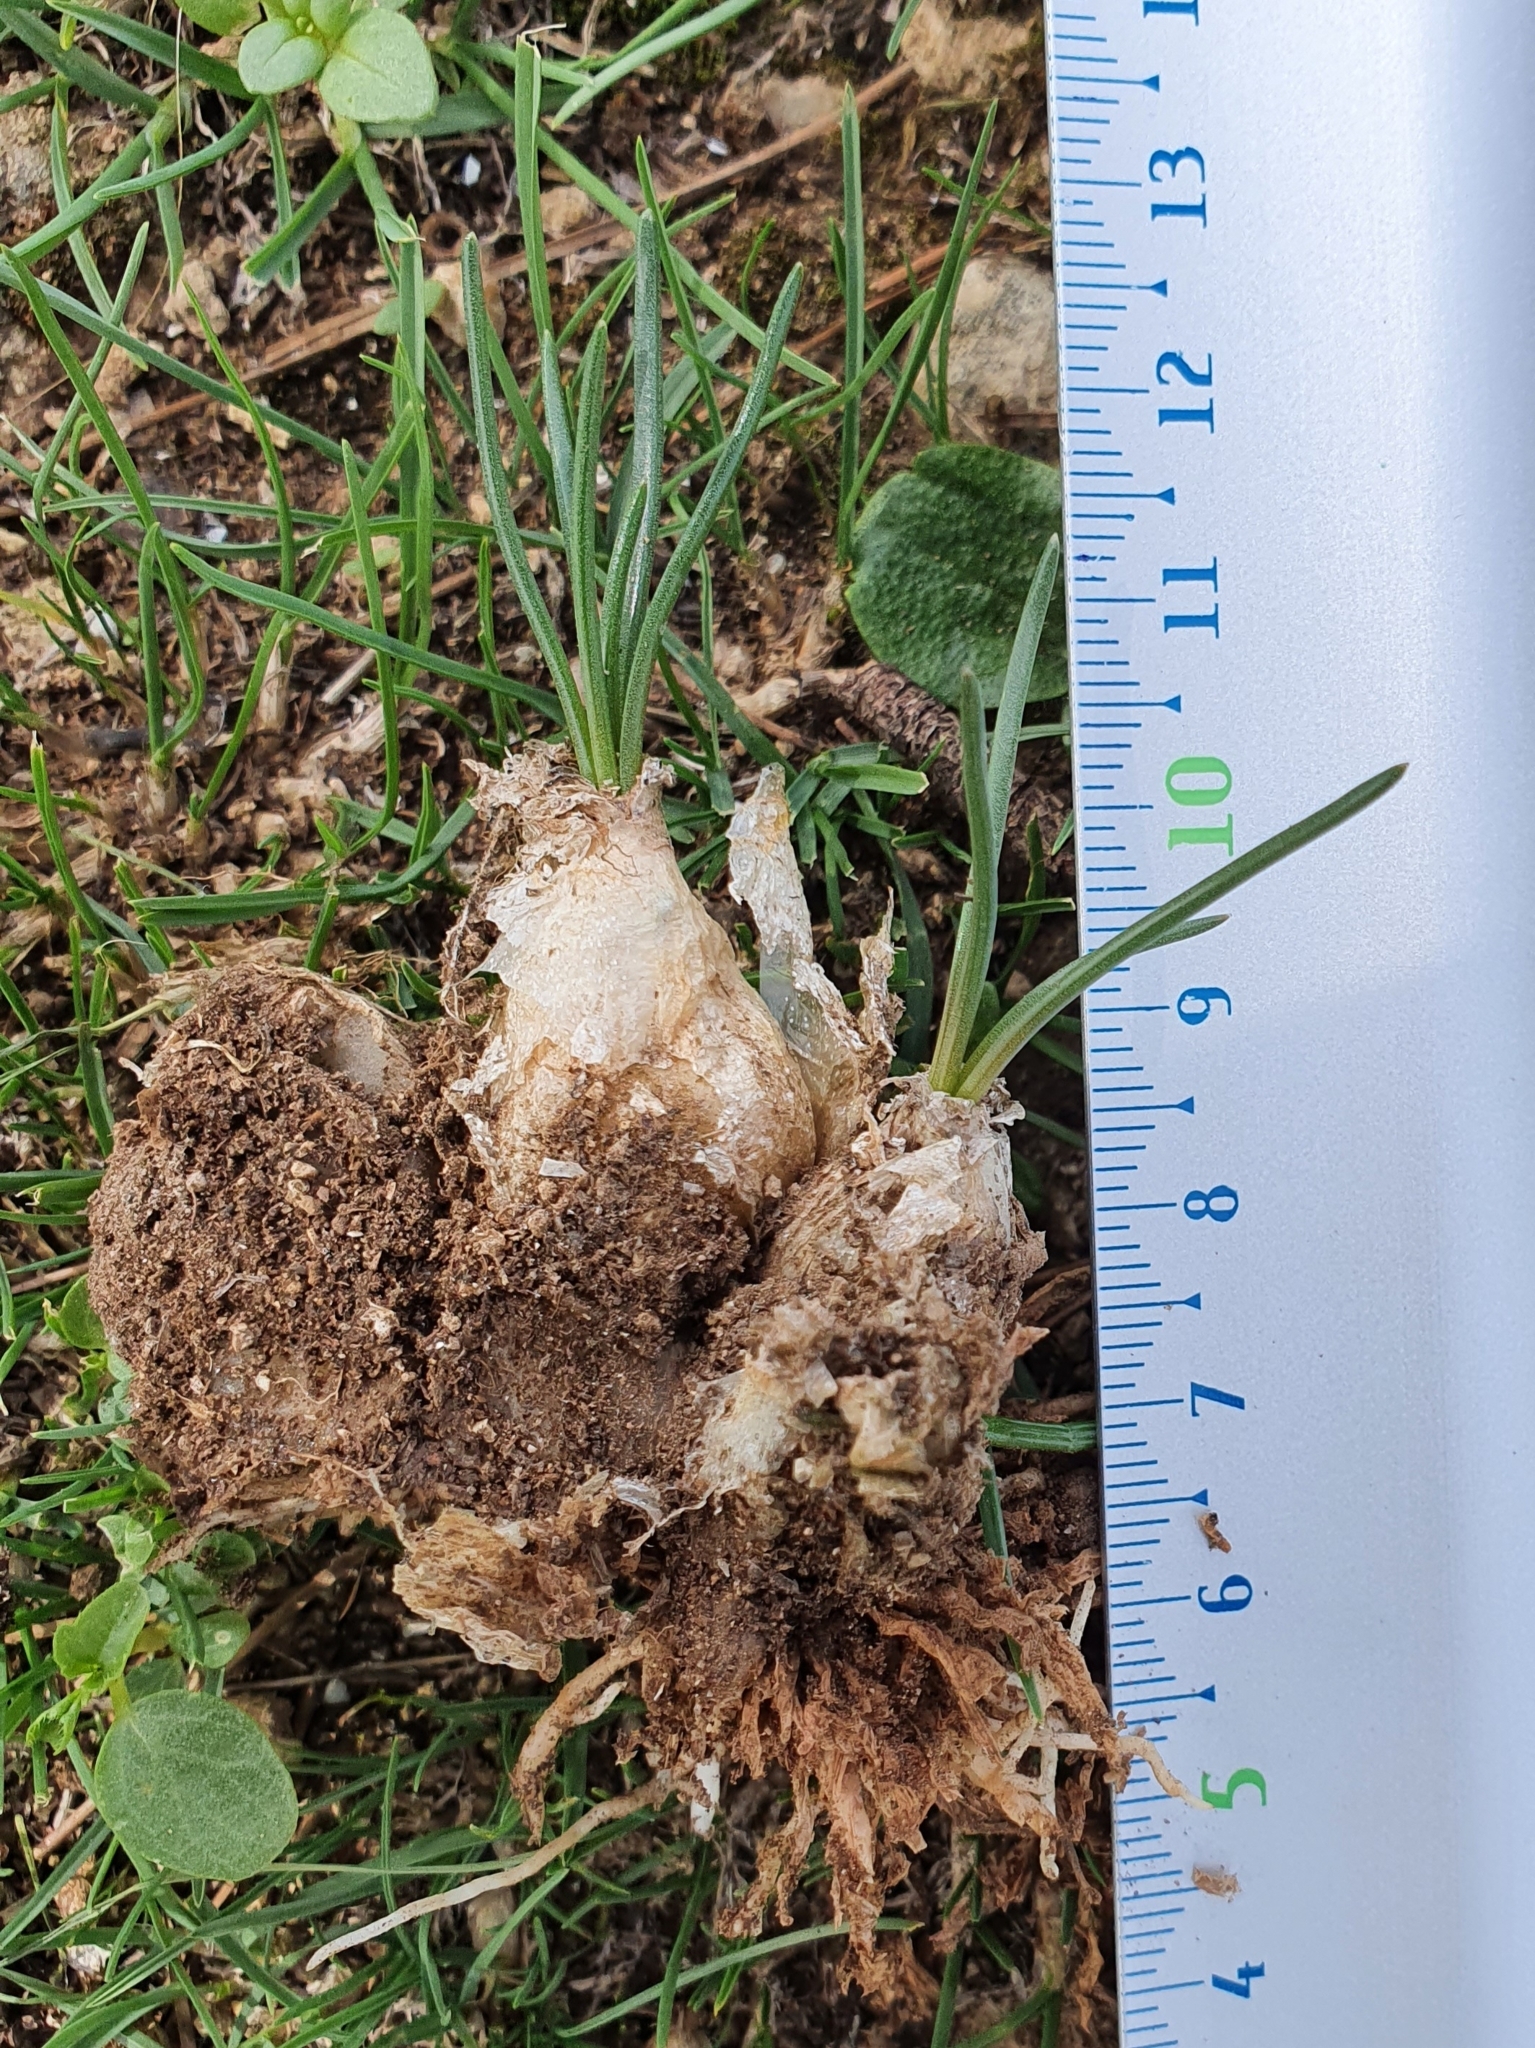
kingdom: Plantae
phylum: Tracheophyta
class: Liliopsida
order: Asparagales
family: Asparagaceae
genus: Drimia
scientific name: Drimia fugax
